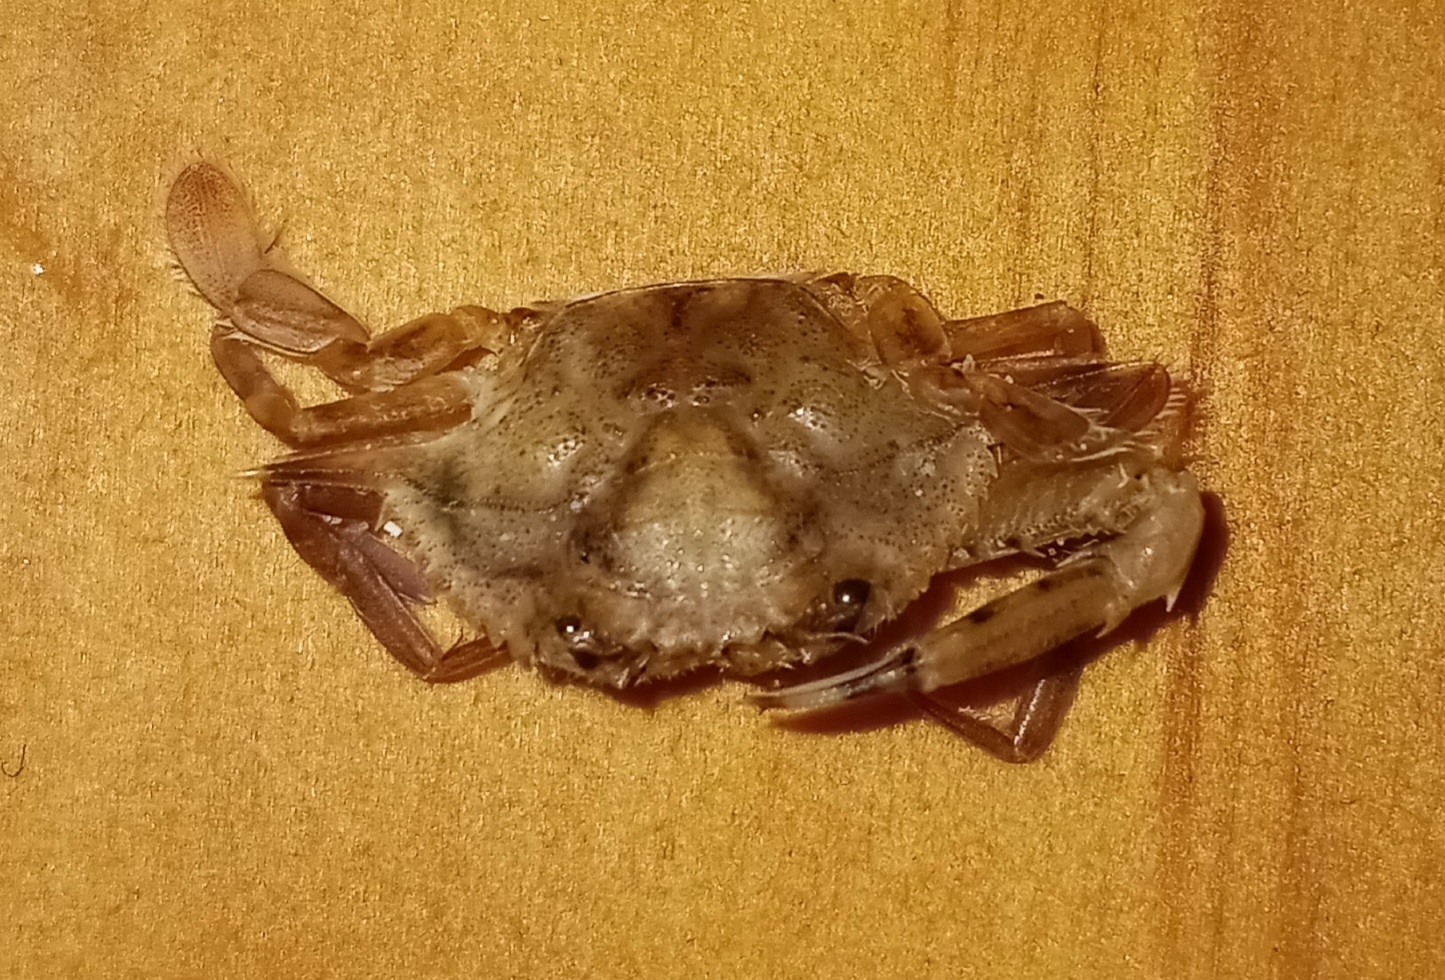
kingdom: Animalia
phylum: Arthropoda
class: Malacostraca
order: Decapoda
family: Portunidae
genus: Achelous
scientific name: Achelous spinimanus
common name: Spiny-handed portunus
